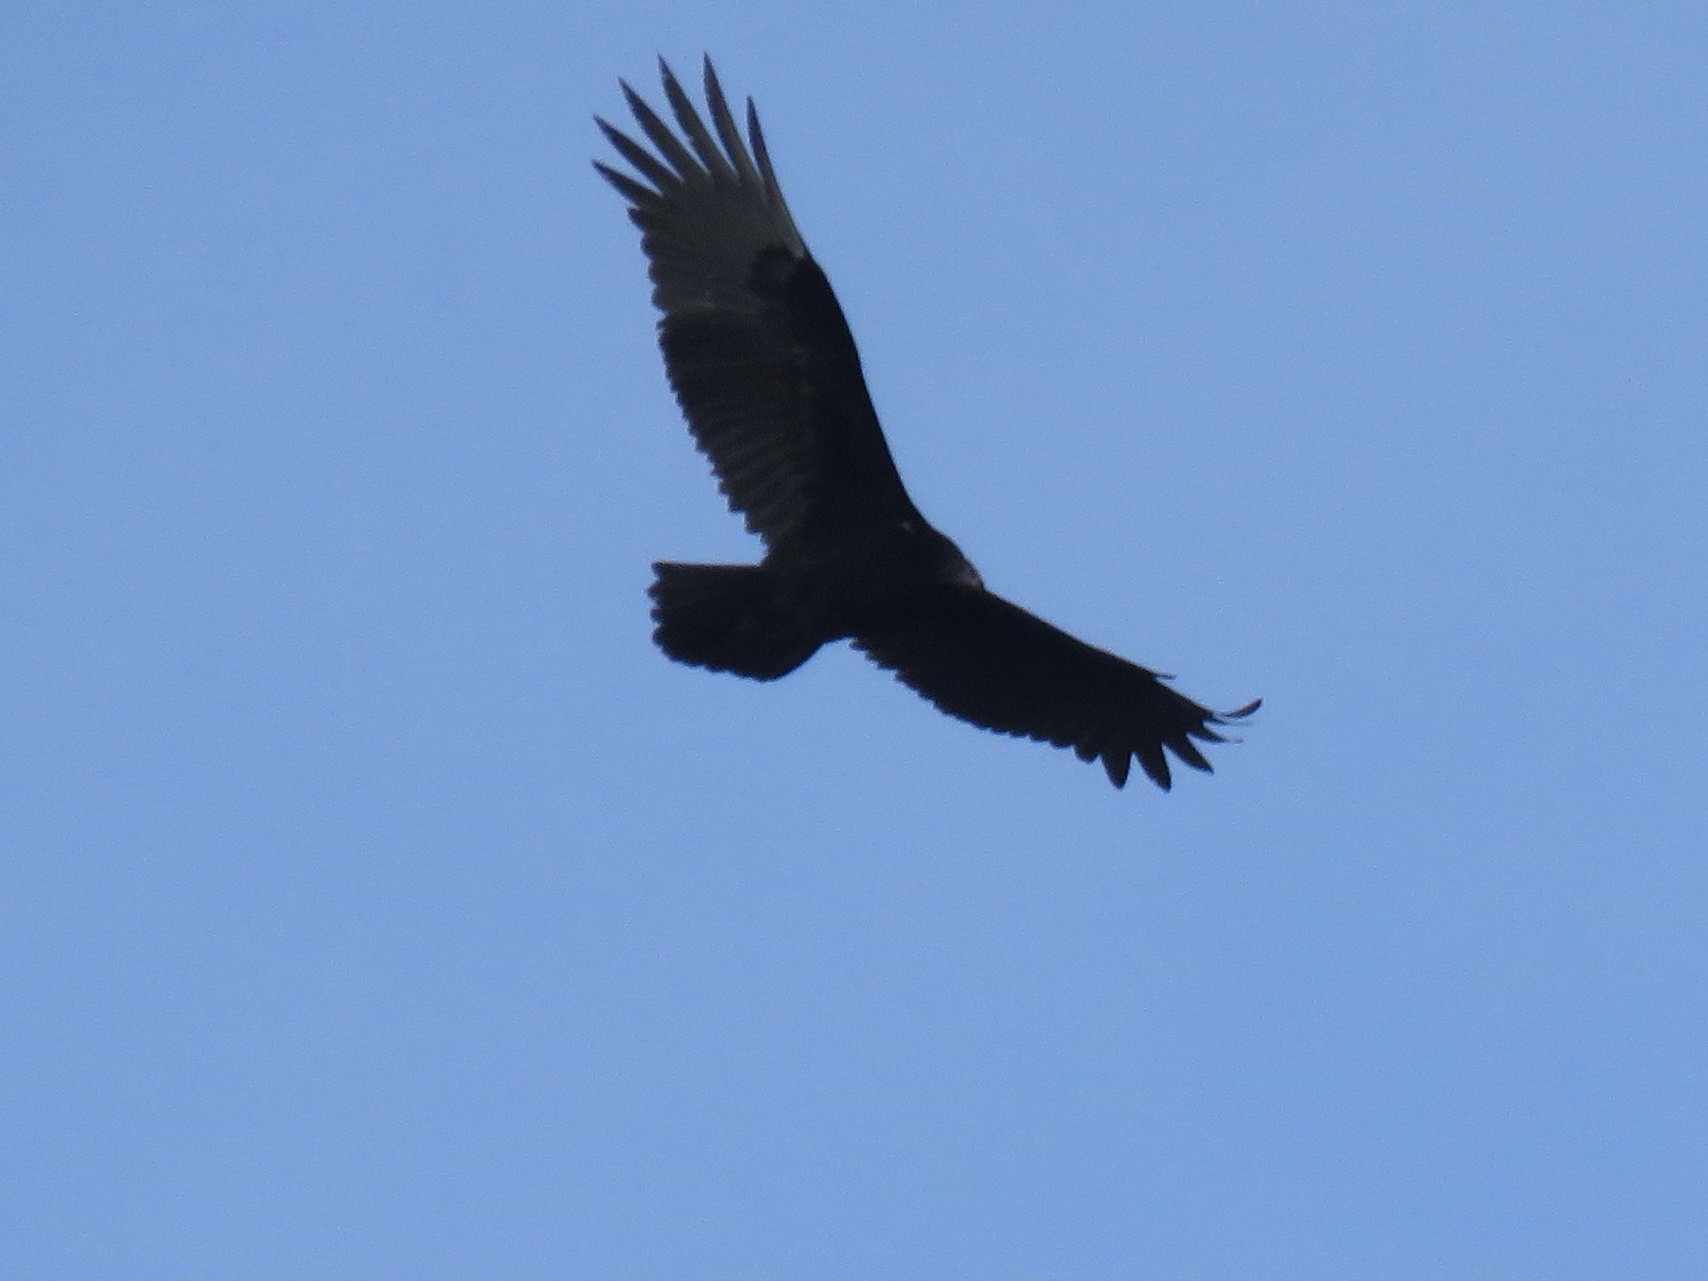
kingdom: Animalia
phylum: Chordata
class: Aves
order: Accipitriformes
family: Cathartidae
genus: Cathartes
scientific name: Cathartes aura
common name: Turkey vulture
